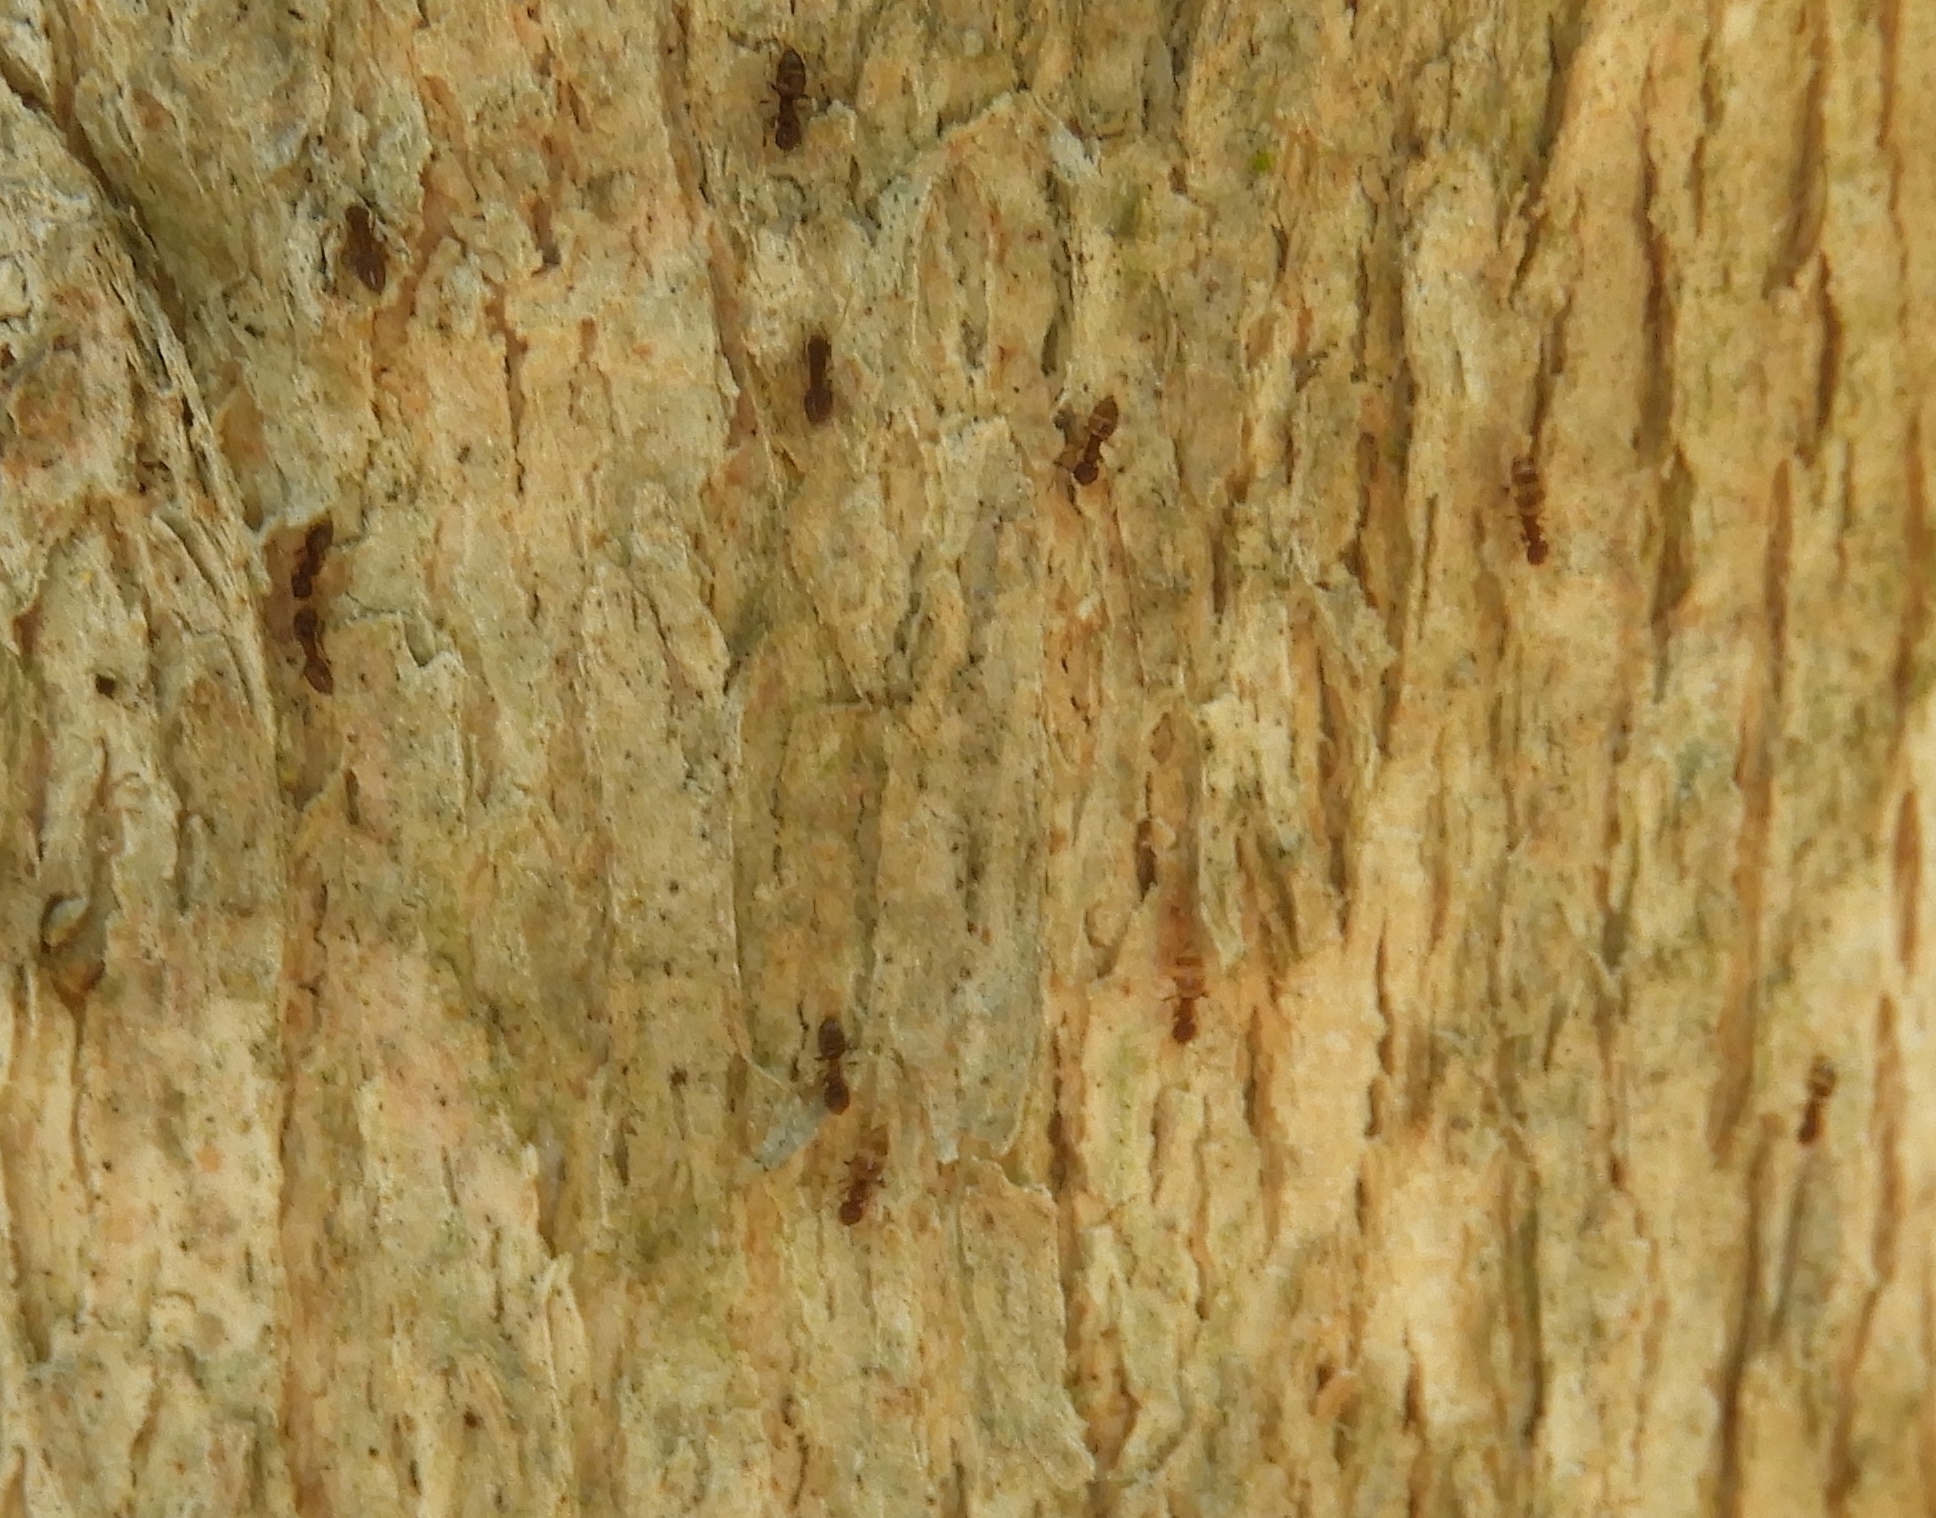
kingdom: Animalia
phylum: Arthropoda
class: Insecta
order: Hymenoptera
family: Formicidae
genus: Brachymyrmex
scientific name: Brachymyrmex
